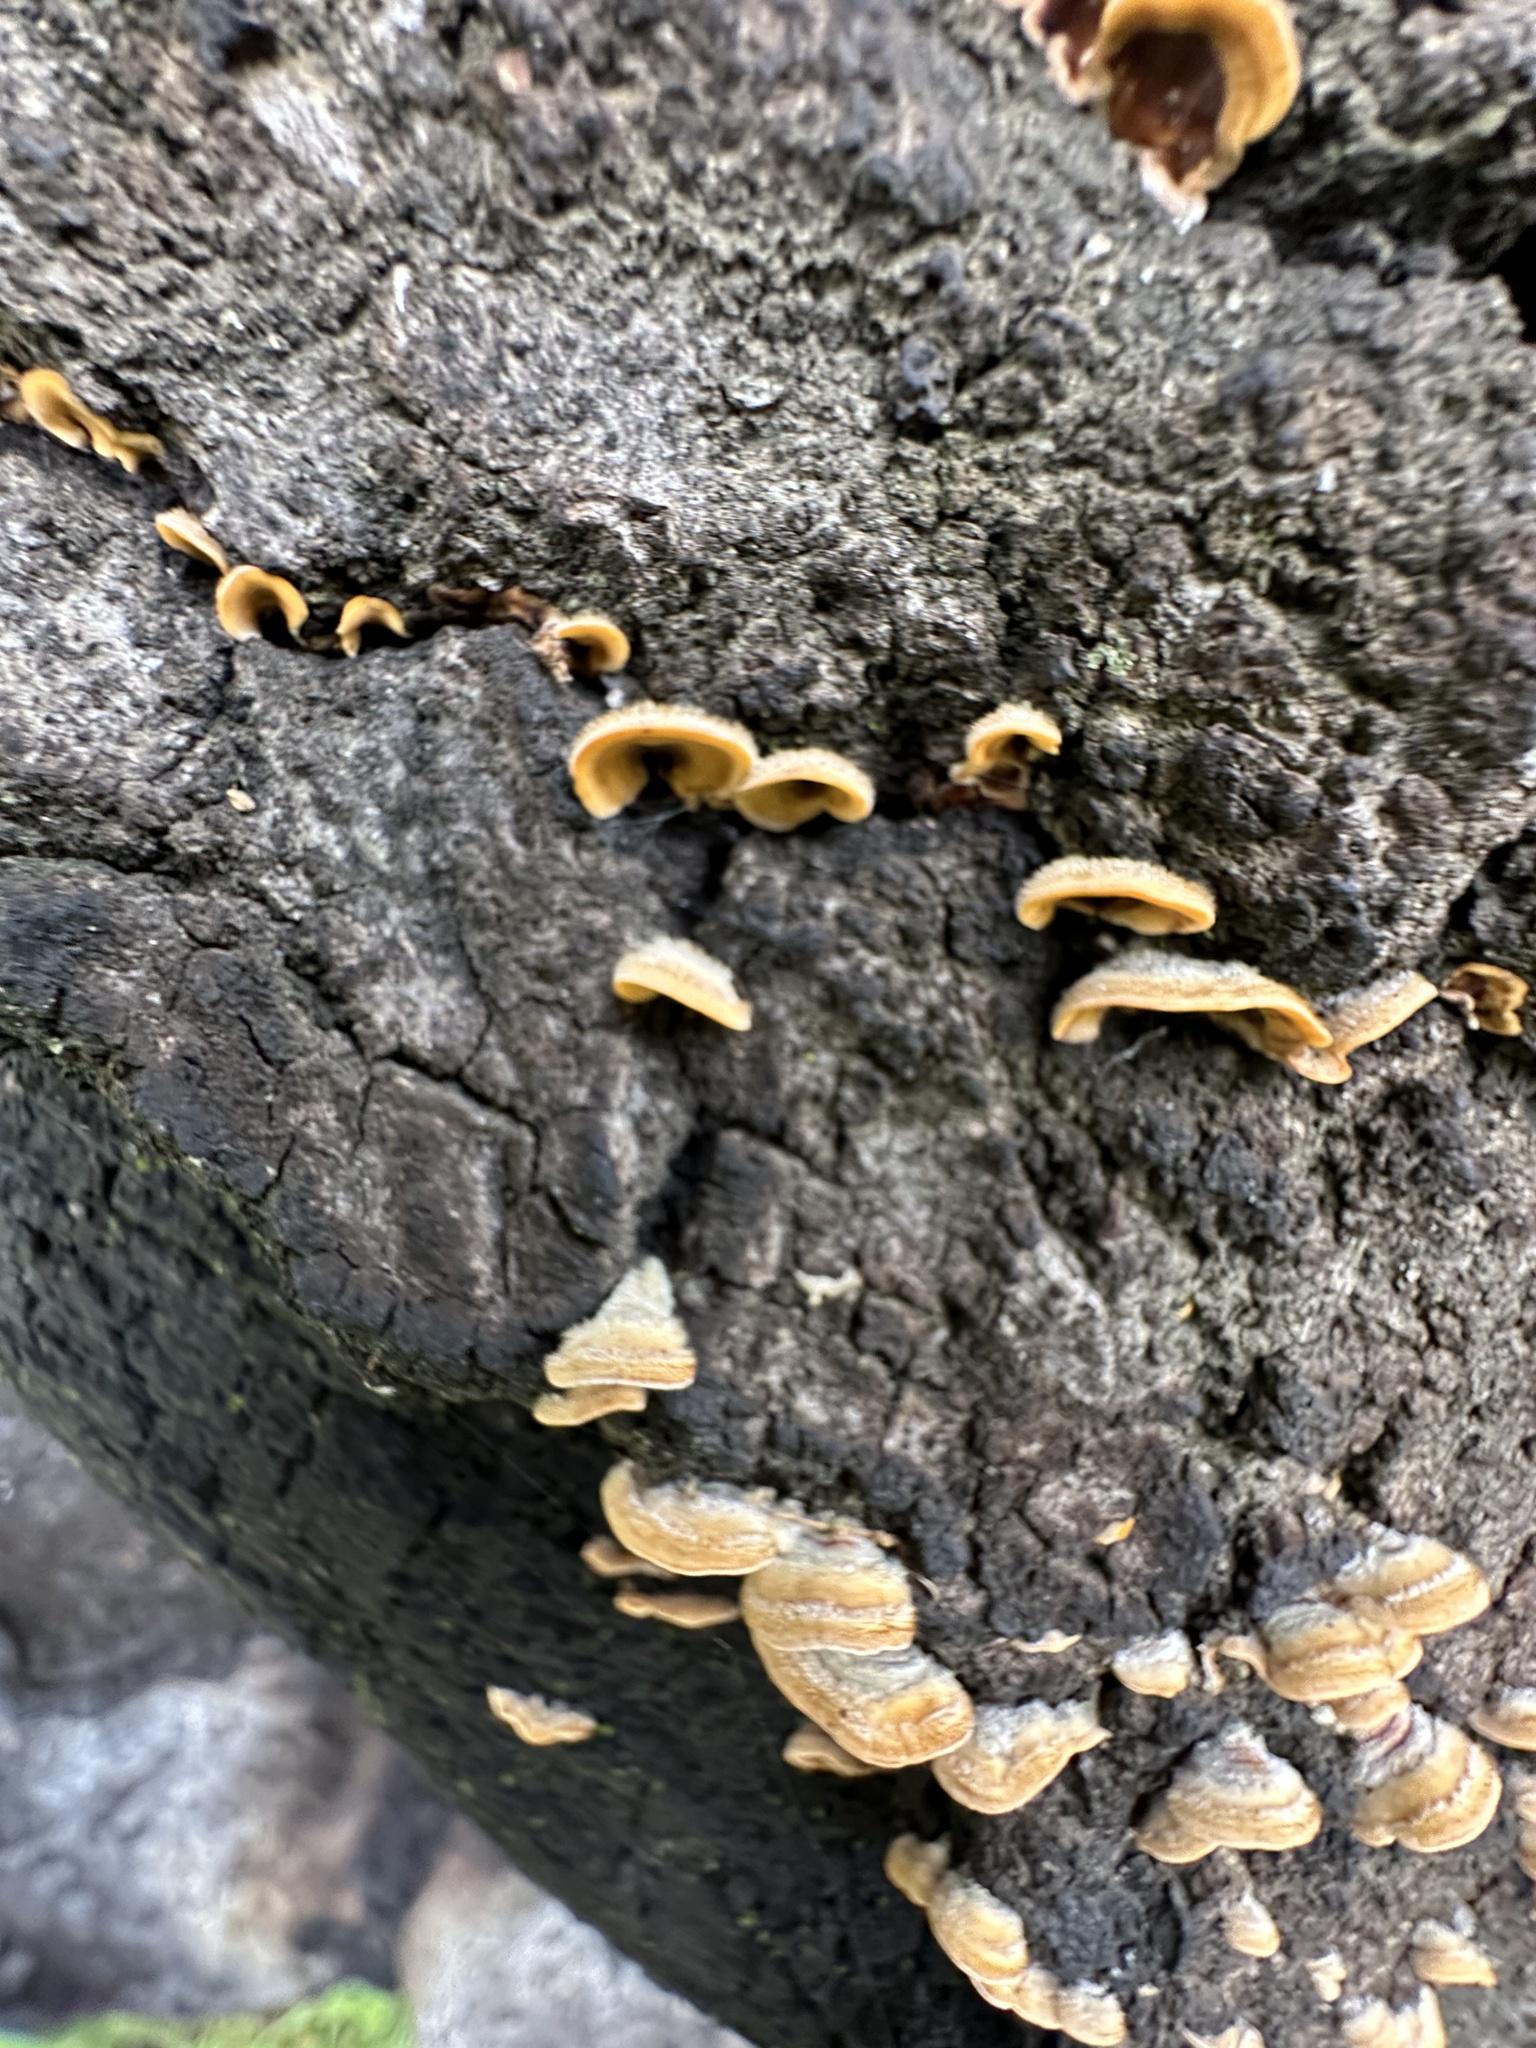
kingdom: Fungi
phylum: Basidiomycota
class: Agaricomycetes
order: Russulales
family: Stereaceae
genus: Stereum
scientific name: Stereum hirsutum
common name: Hairy curtain crust
